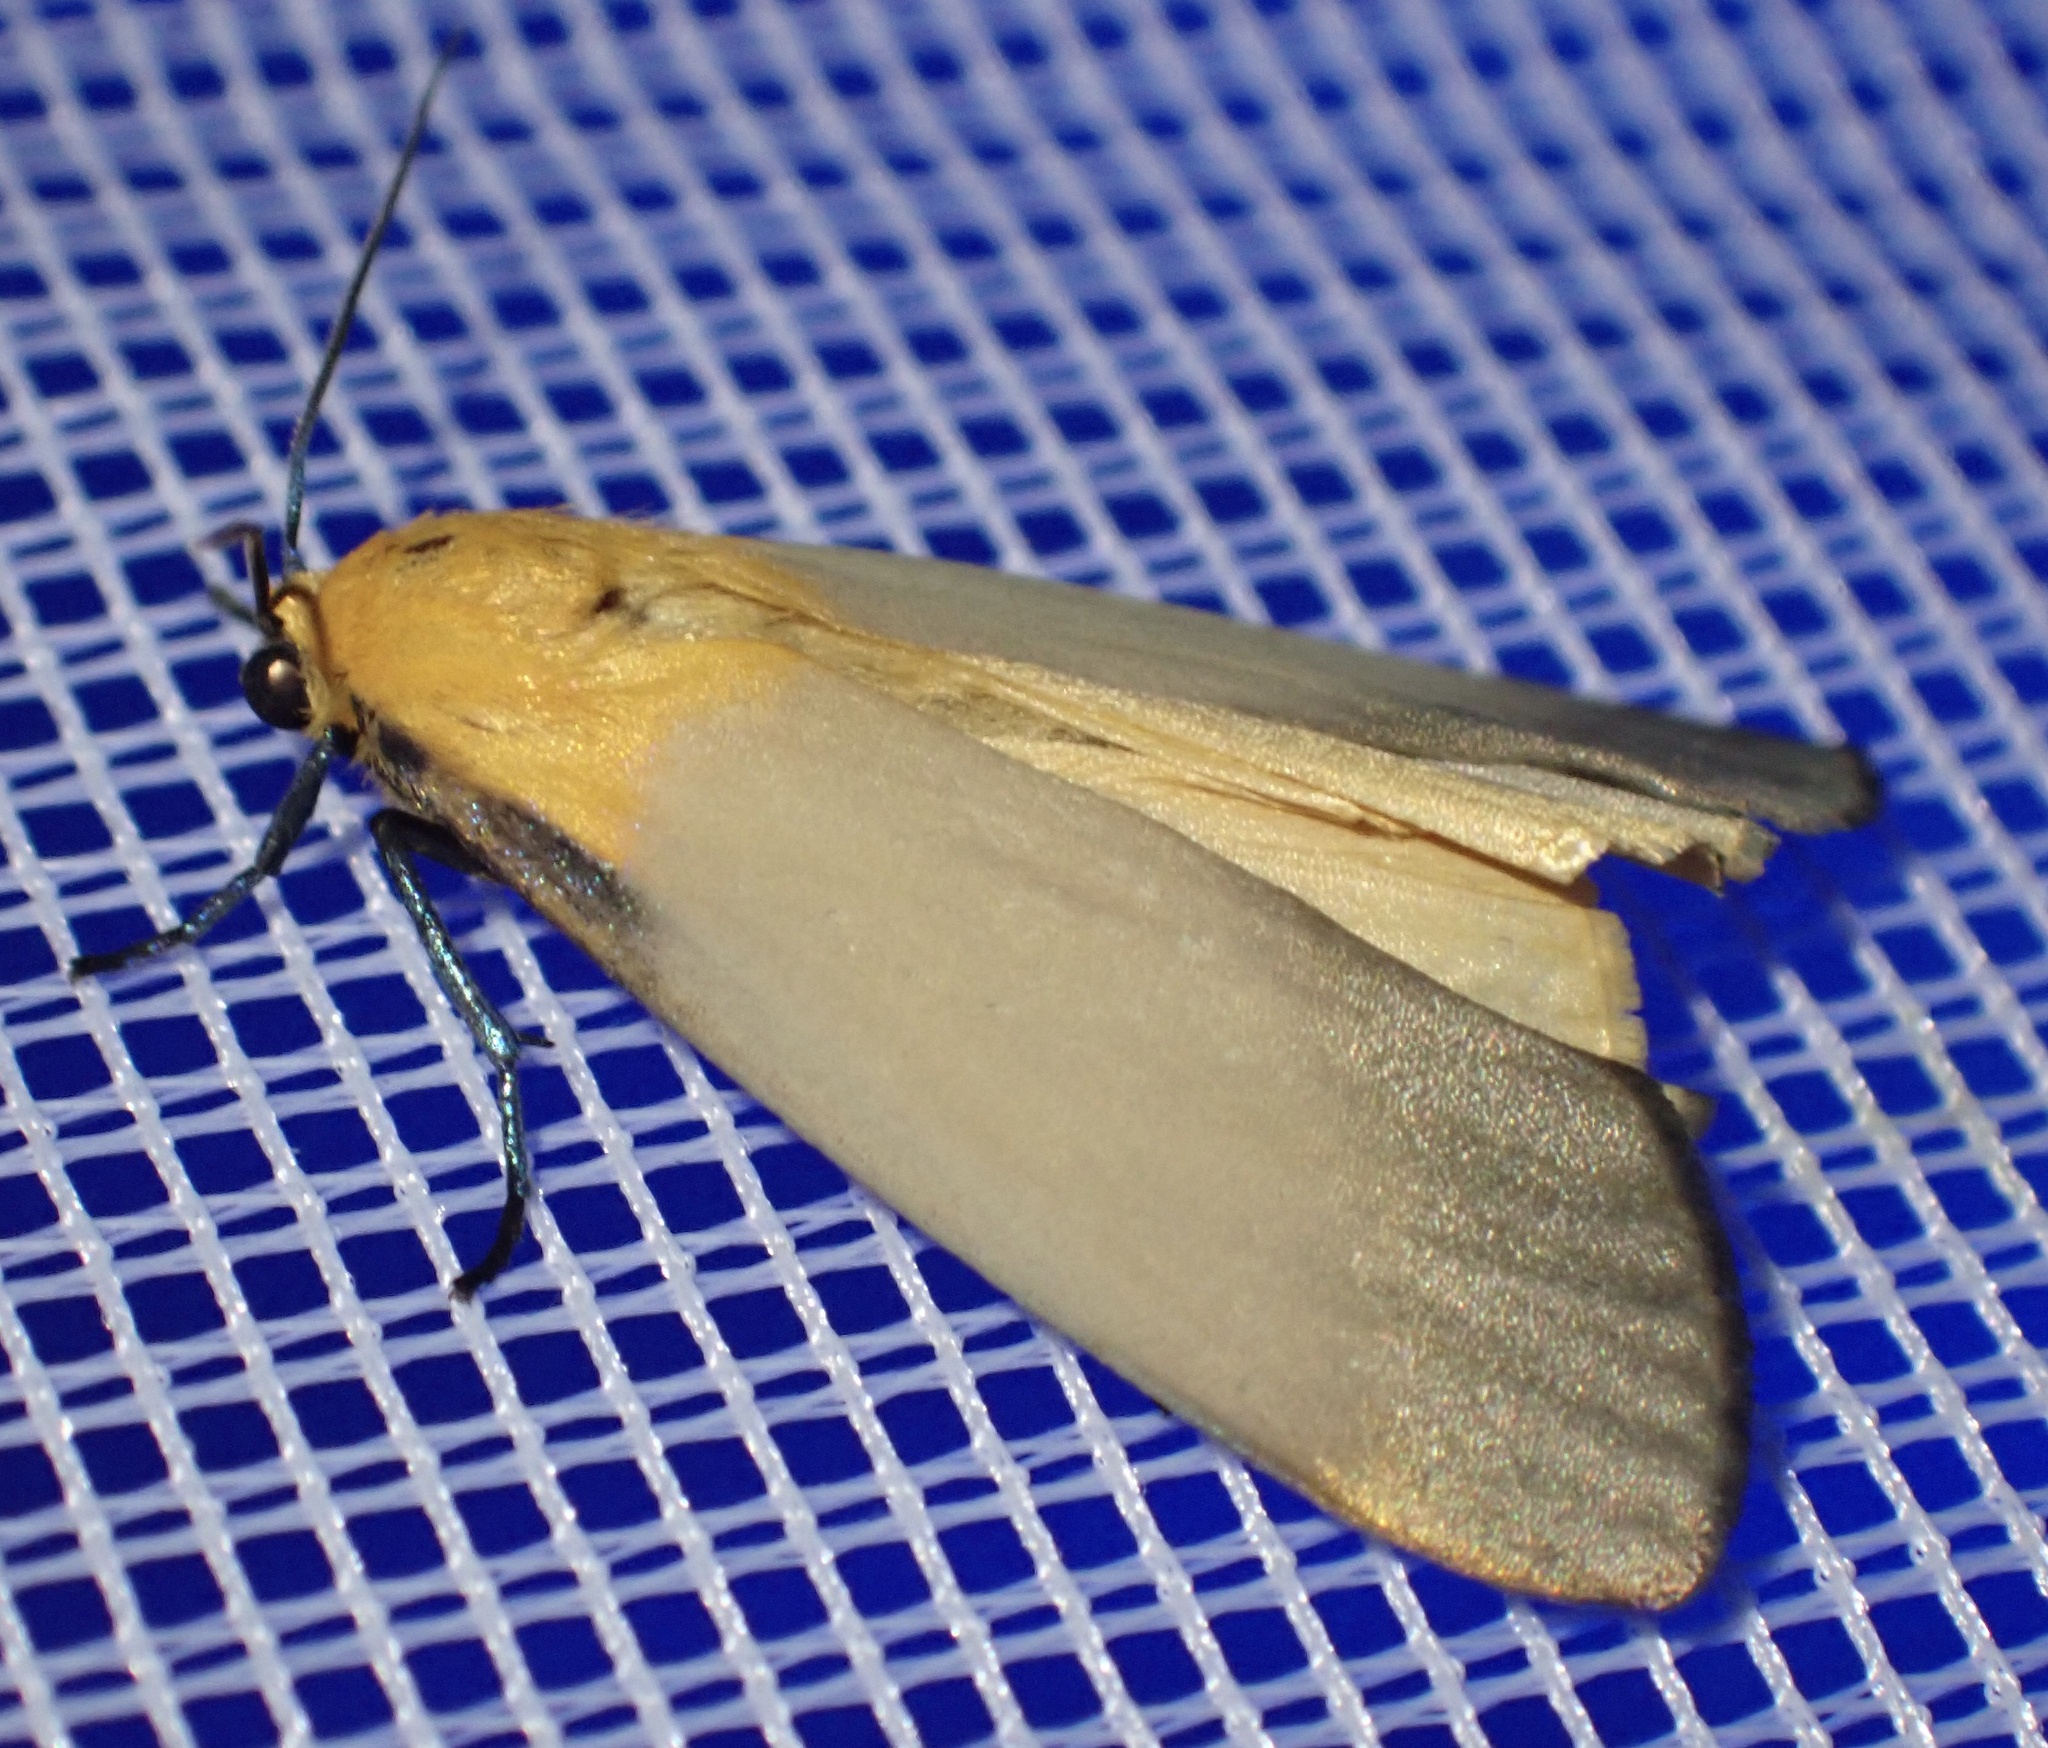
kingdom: Animalia
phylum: Arthropoda
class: Insecta
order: Lepidoptera
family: Erebidae
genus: Lithosia
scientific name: Lithosia quadra
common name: Four-spotted footman
